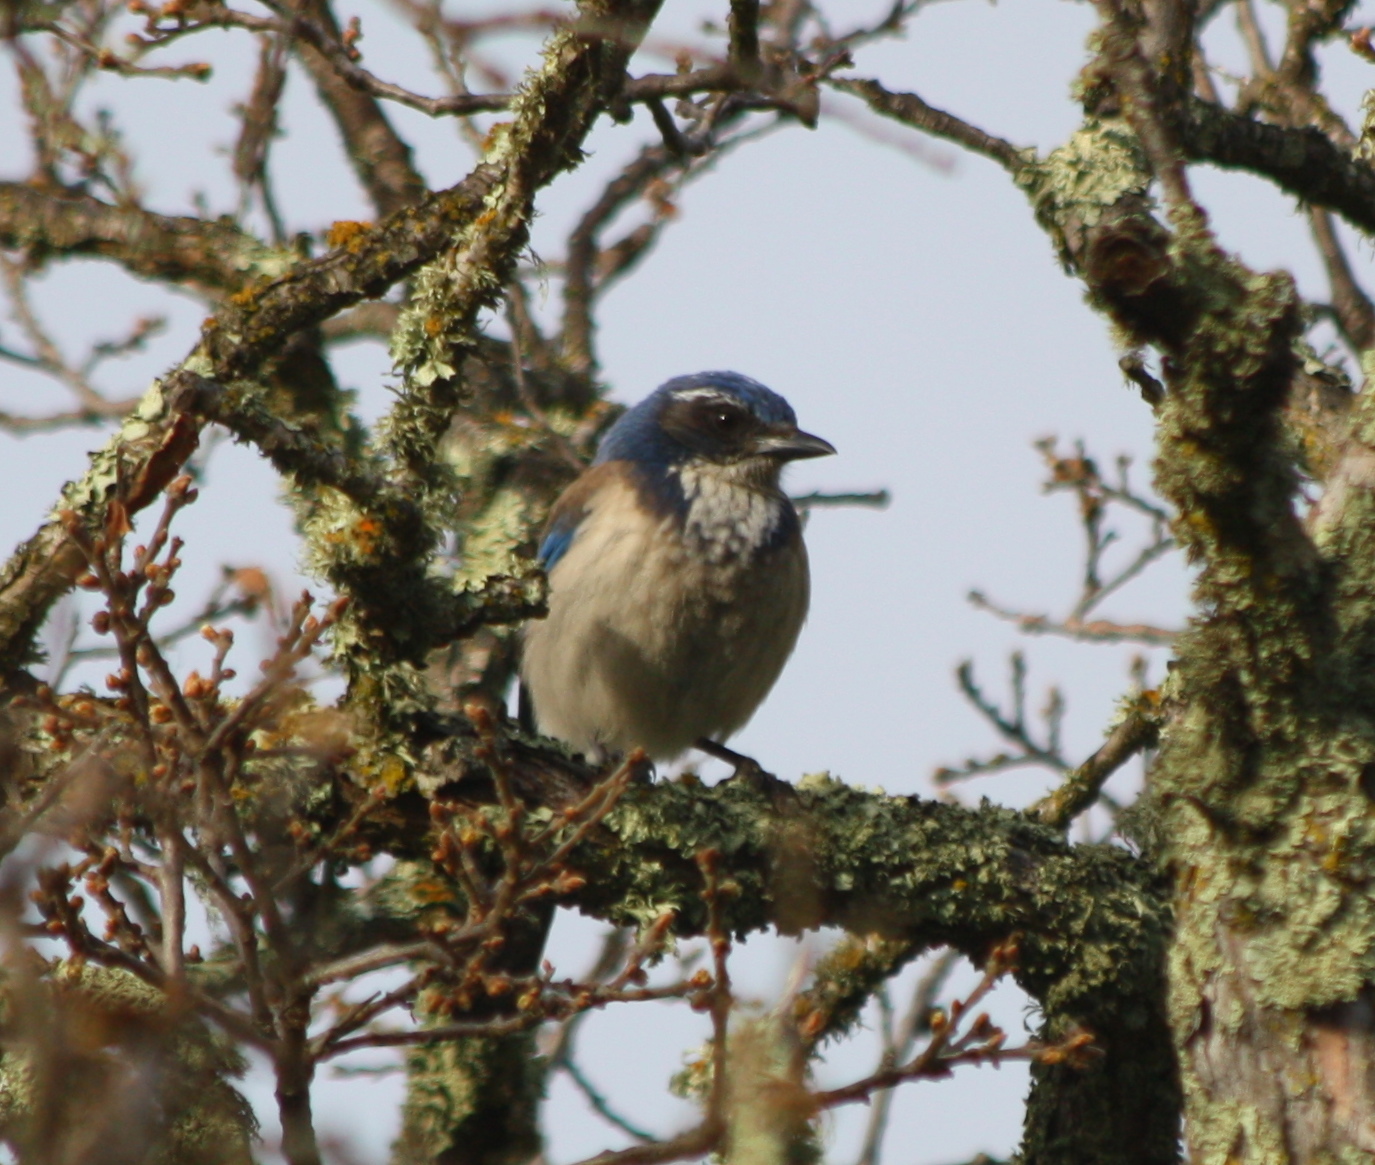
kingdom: Animalia
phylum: Chordata
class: Aves
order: Passeriformes
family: Corvidae
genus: Aphelocoma
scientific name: Aphelocoma californica
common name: California scrub-jay
